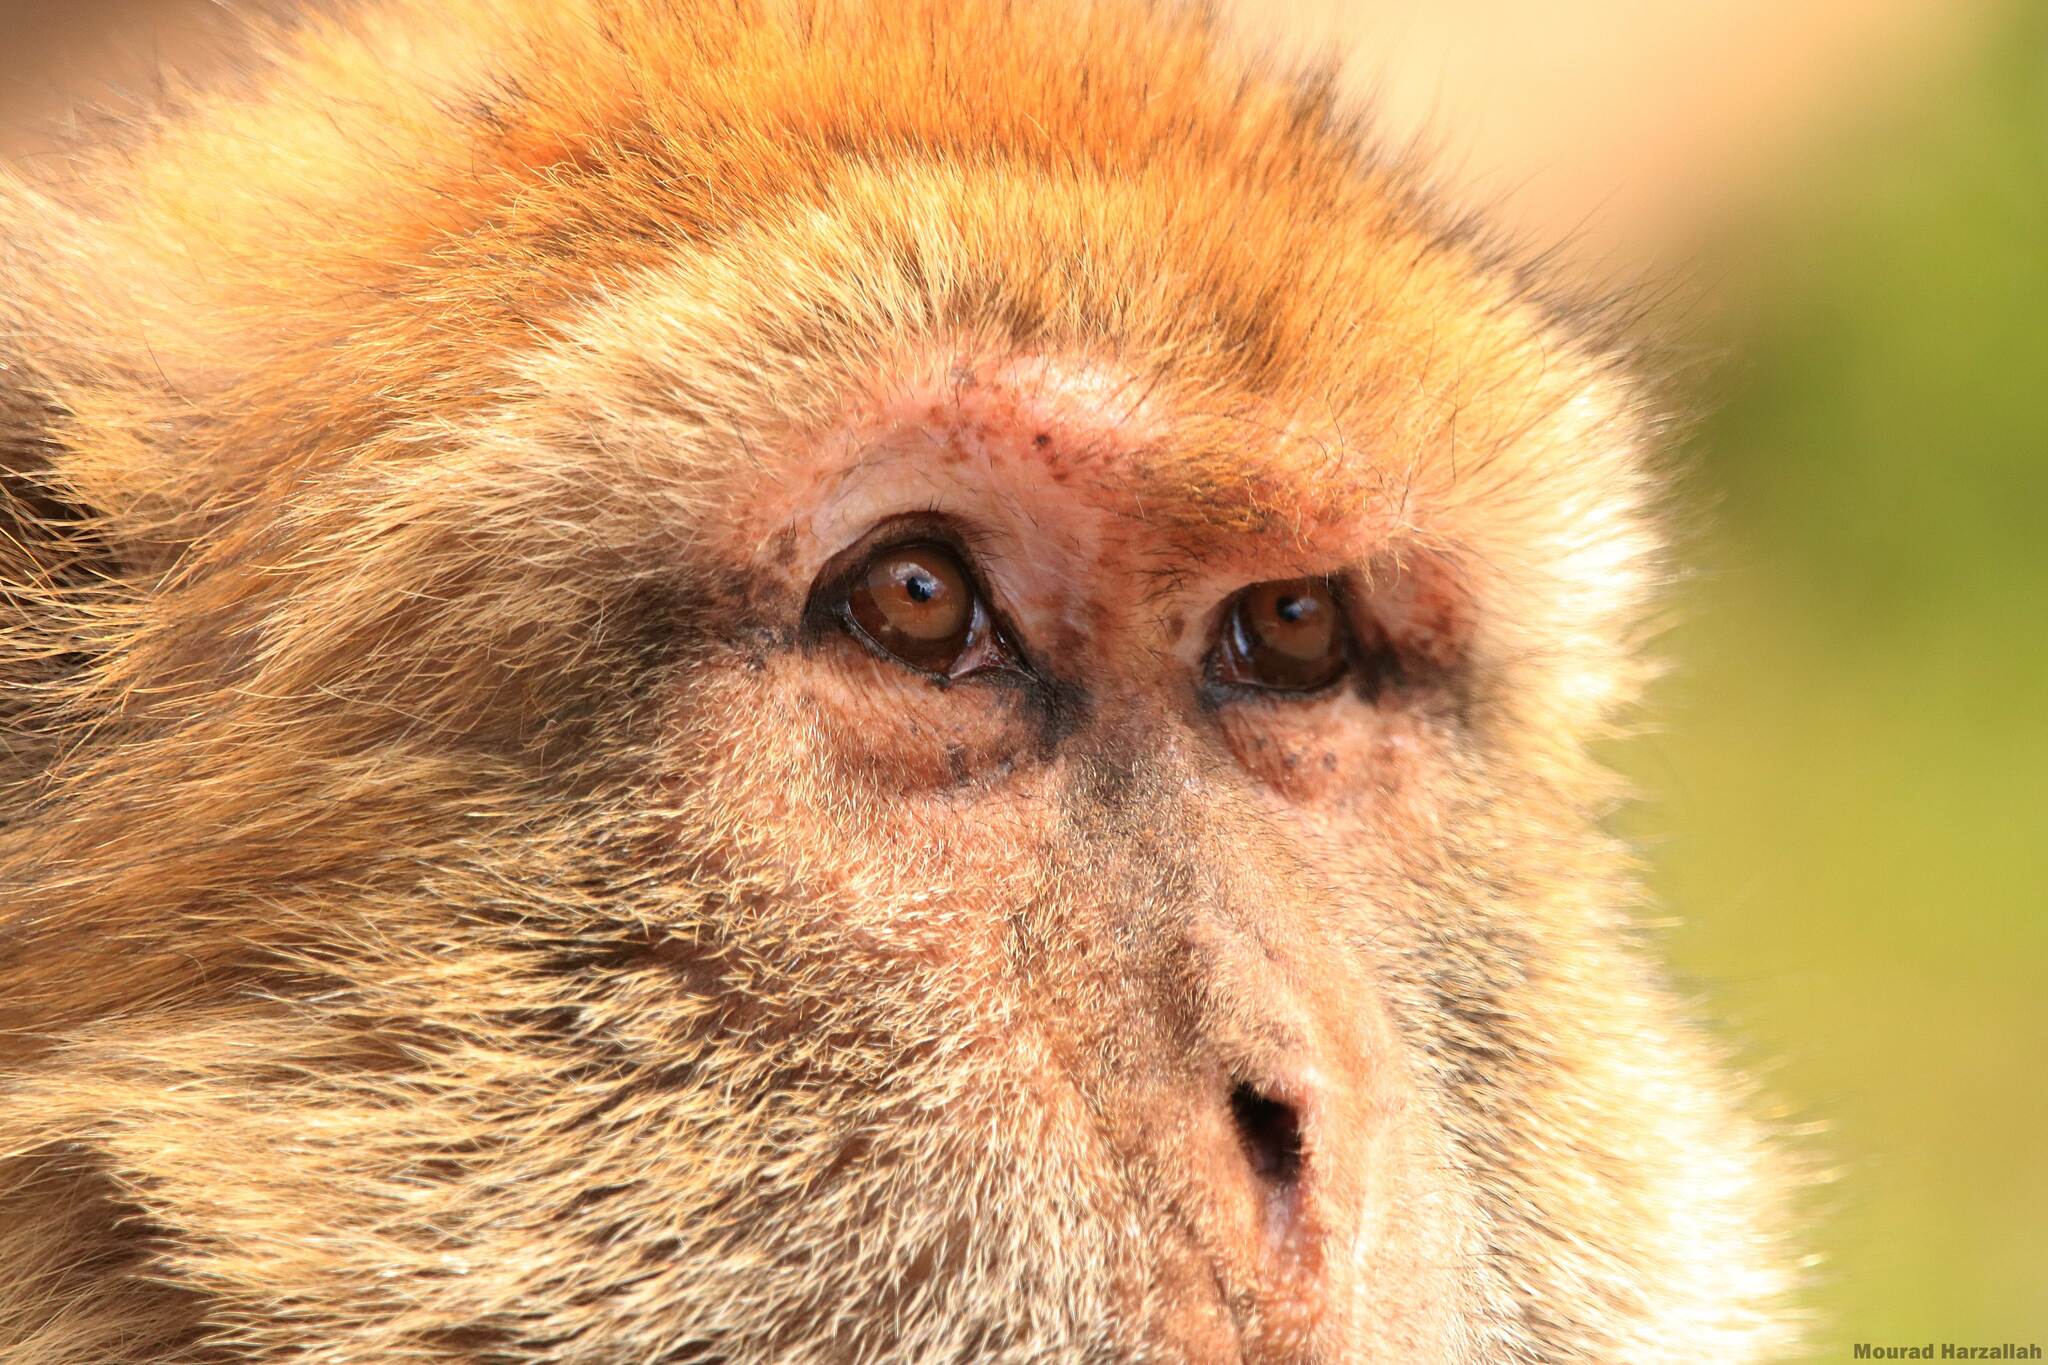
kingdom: Animalia
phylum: Chordata
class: Mammalia
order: Primates
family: Cercopithecidae
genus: Macaca
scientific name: Macaca sylvanus
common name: Barbary macaque
